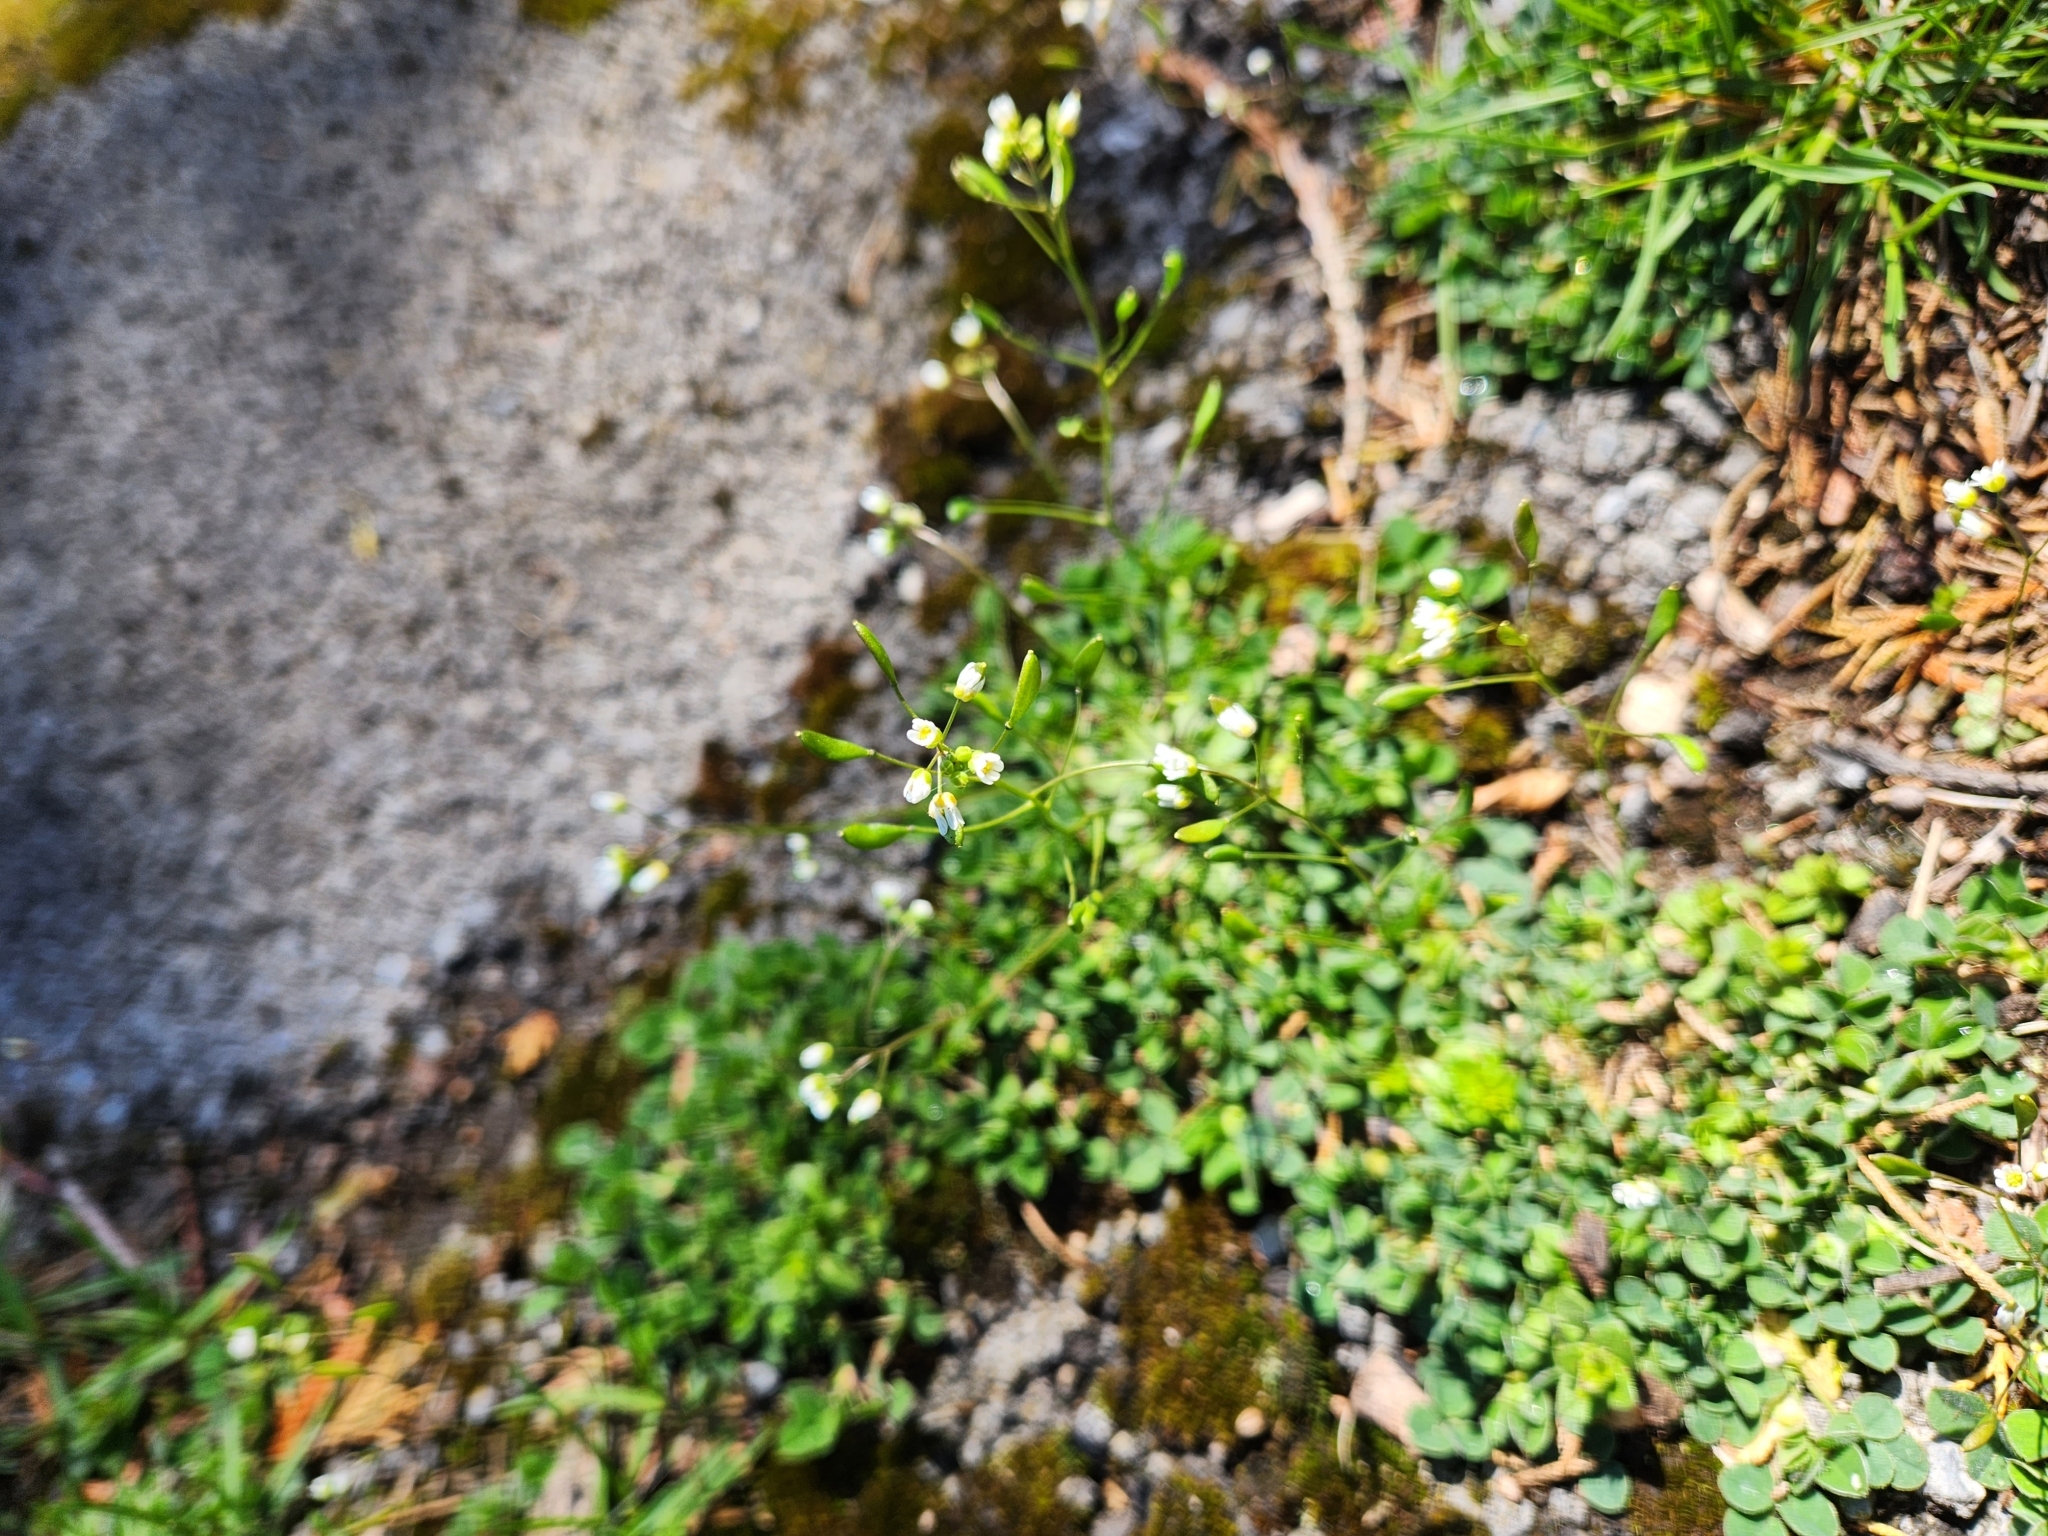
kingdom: Plantae
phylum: Tracheophyta
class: Magnoliopsida
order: Brassicales
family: Brassicaceae
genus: Draba
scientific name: Draba verna
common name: Spring draba
